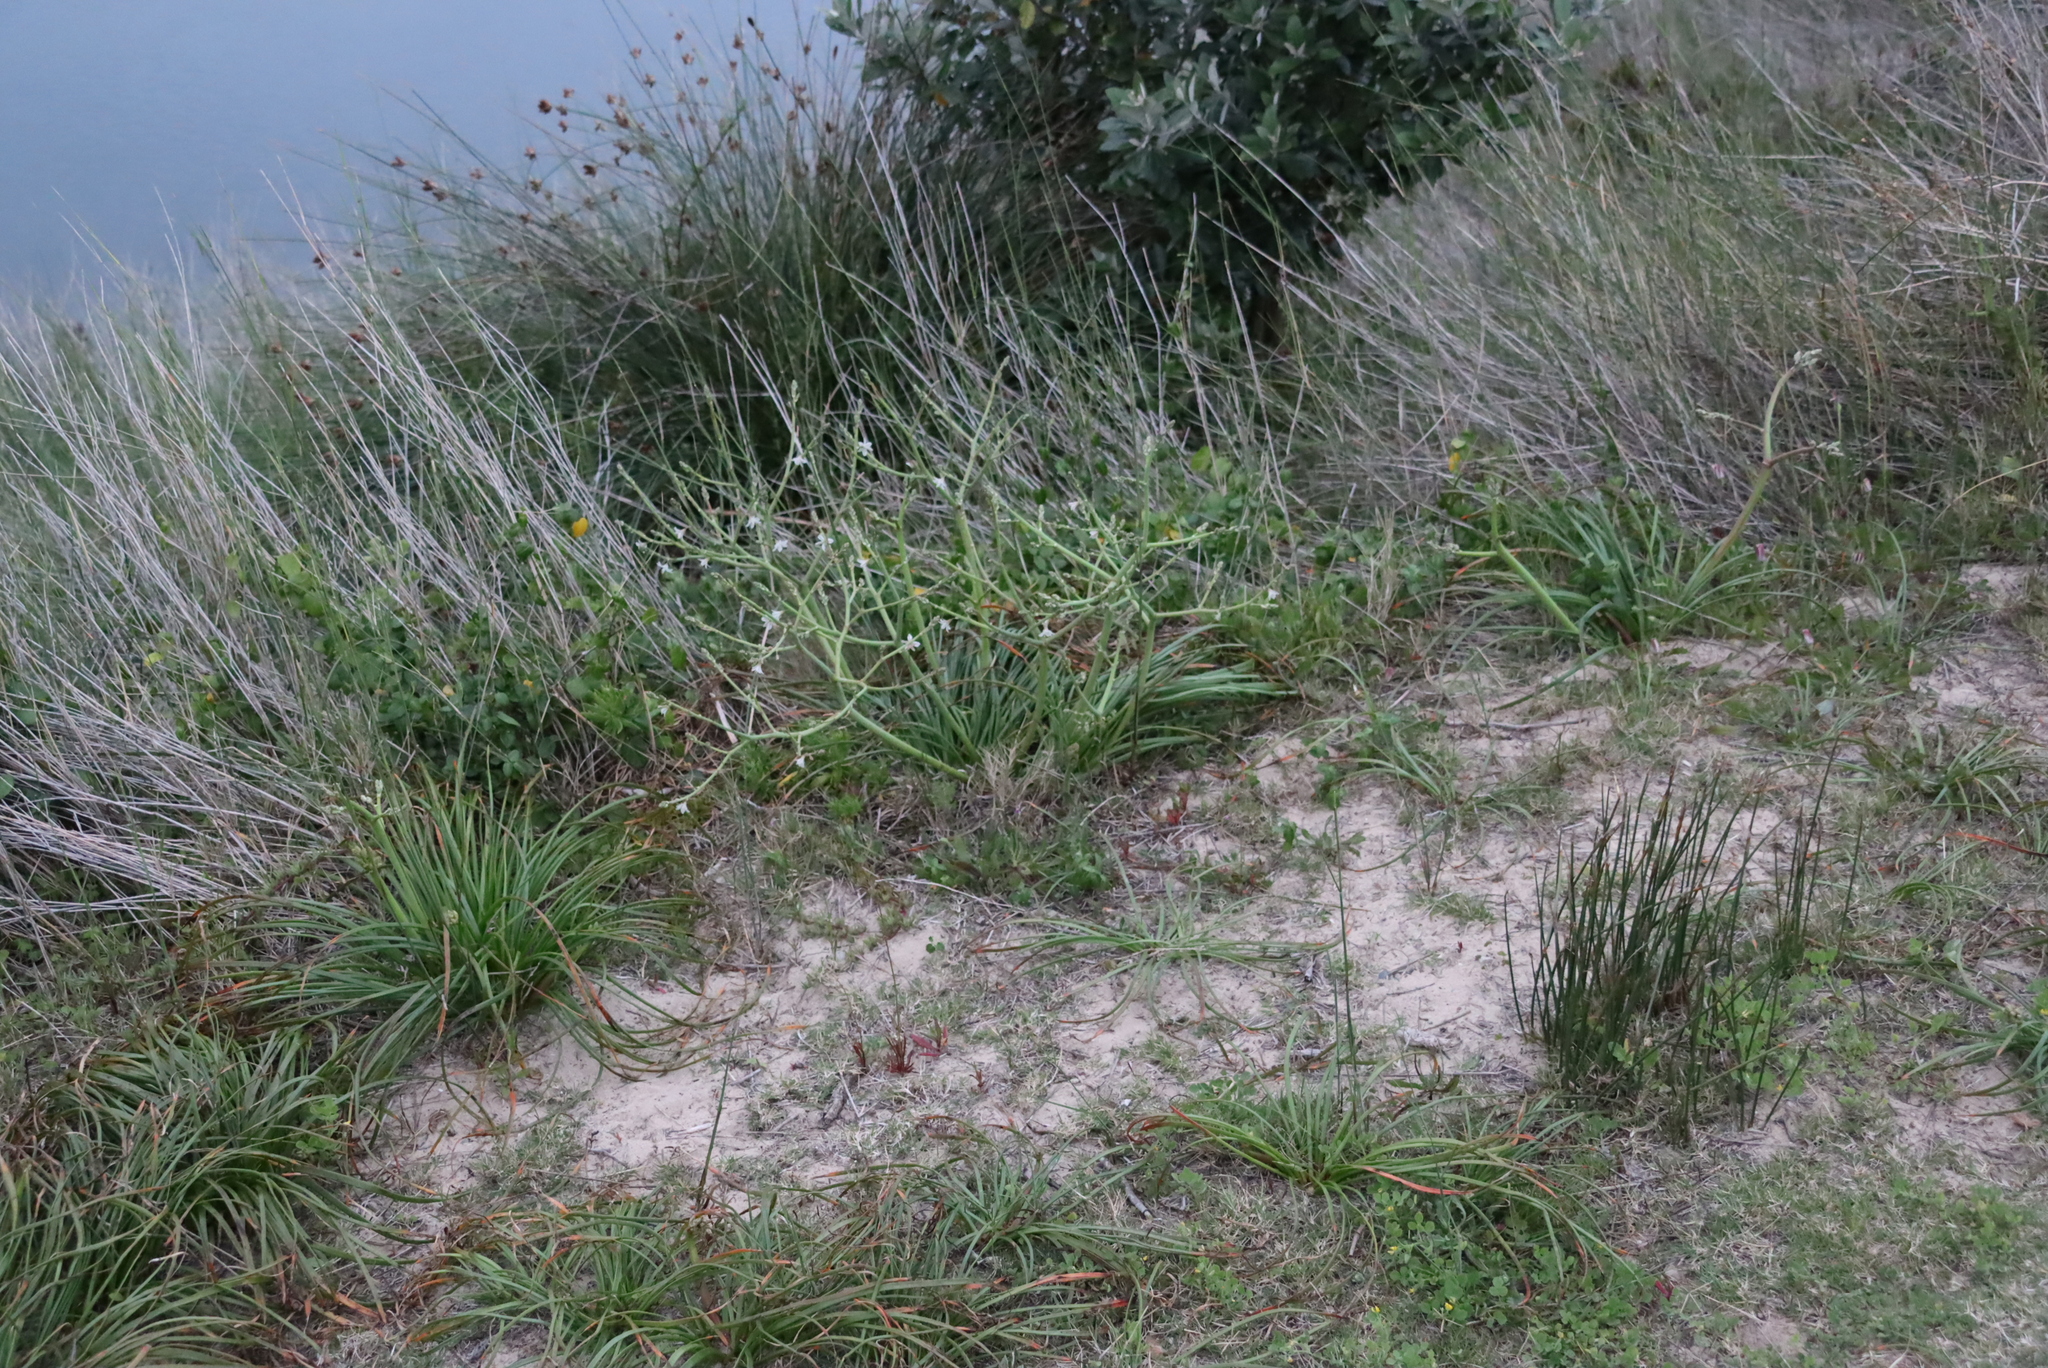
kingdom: Plantae
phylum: Tracheophyta
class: Liliopsida
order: Asparagales
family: Asphodelaceae
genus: Trachyandra
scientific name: Trachyandra divaricata
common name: Dune onionweed
